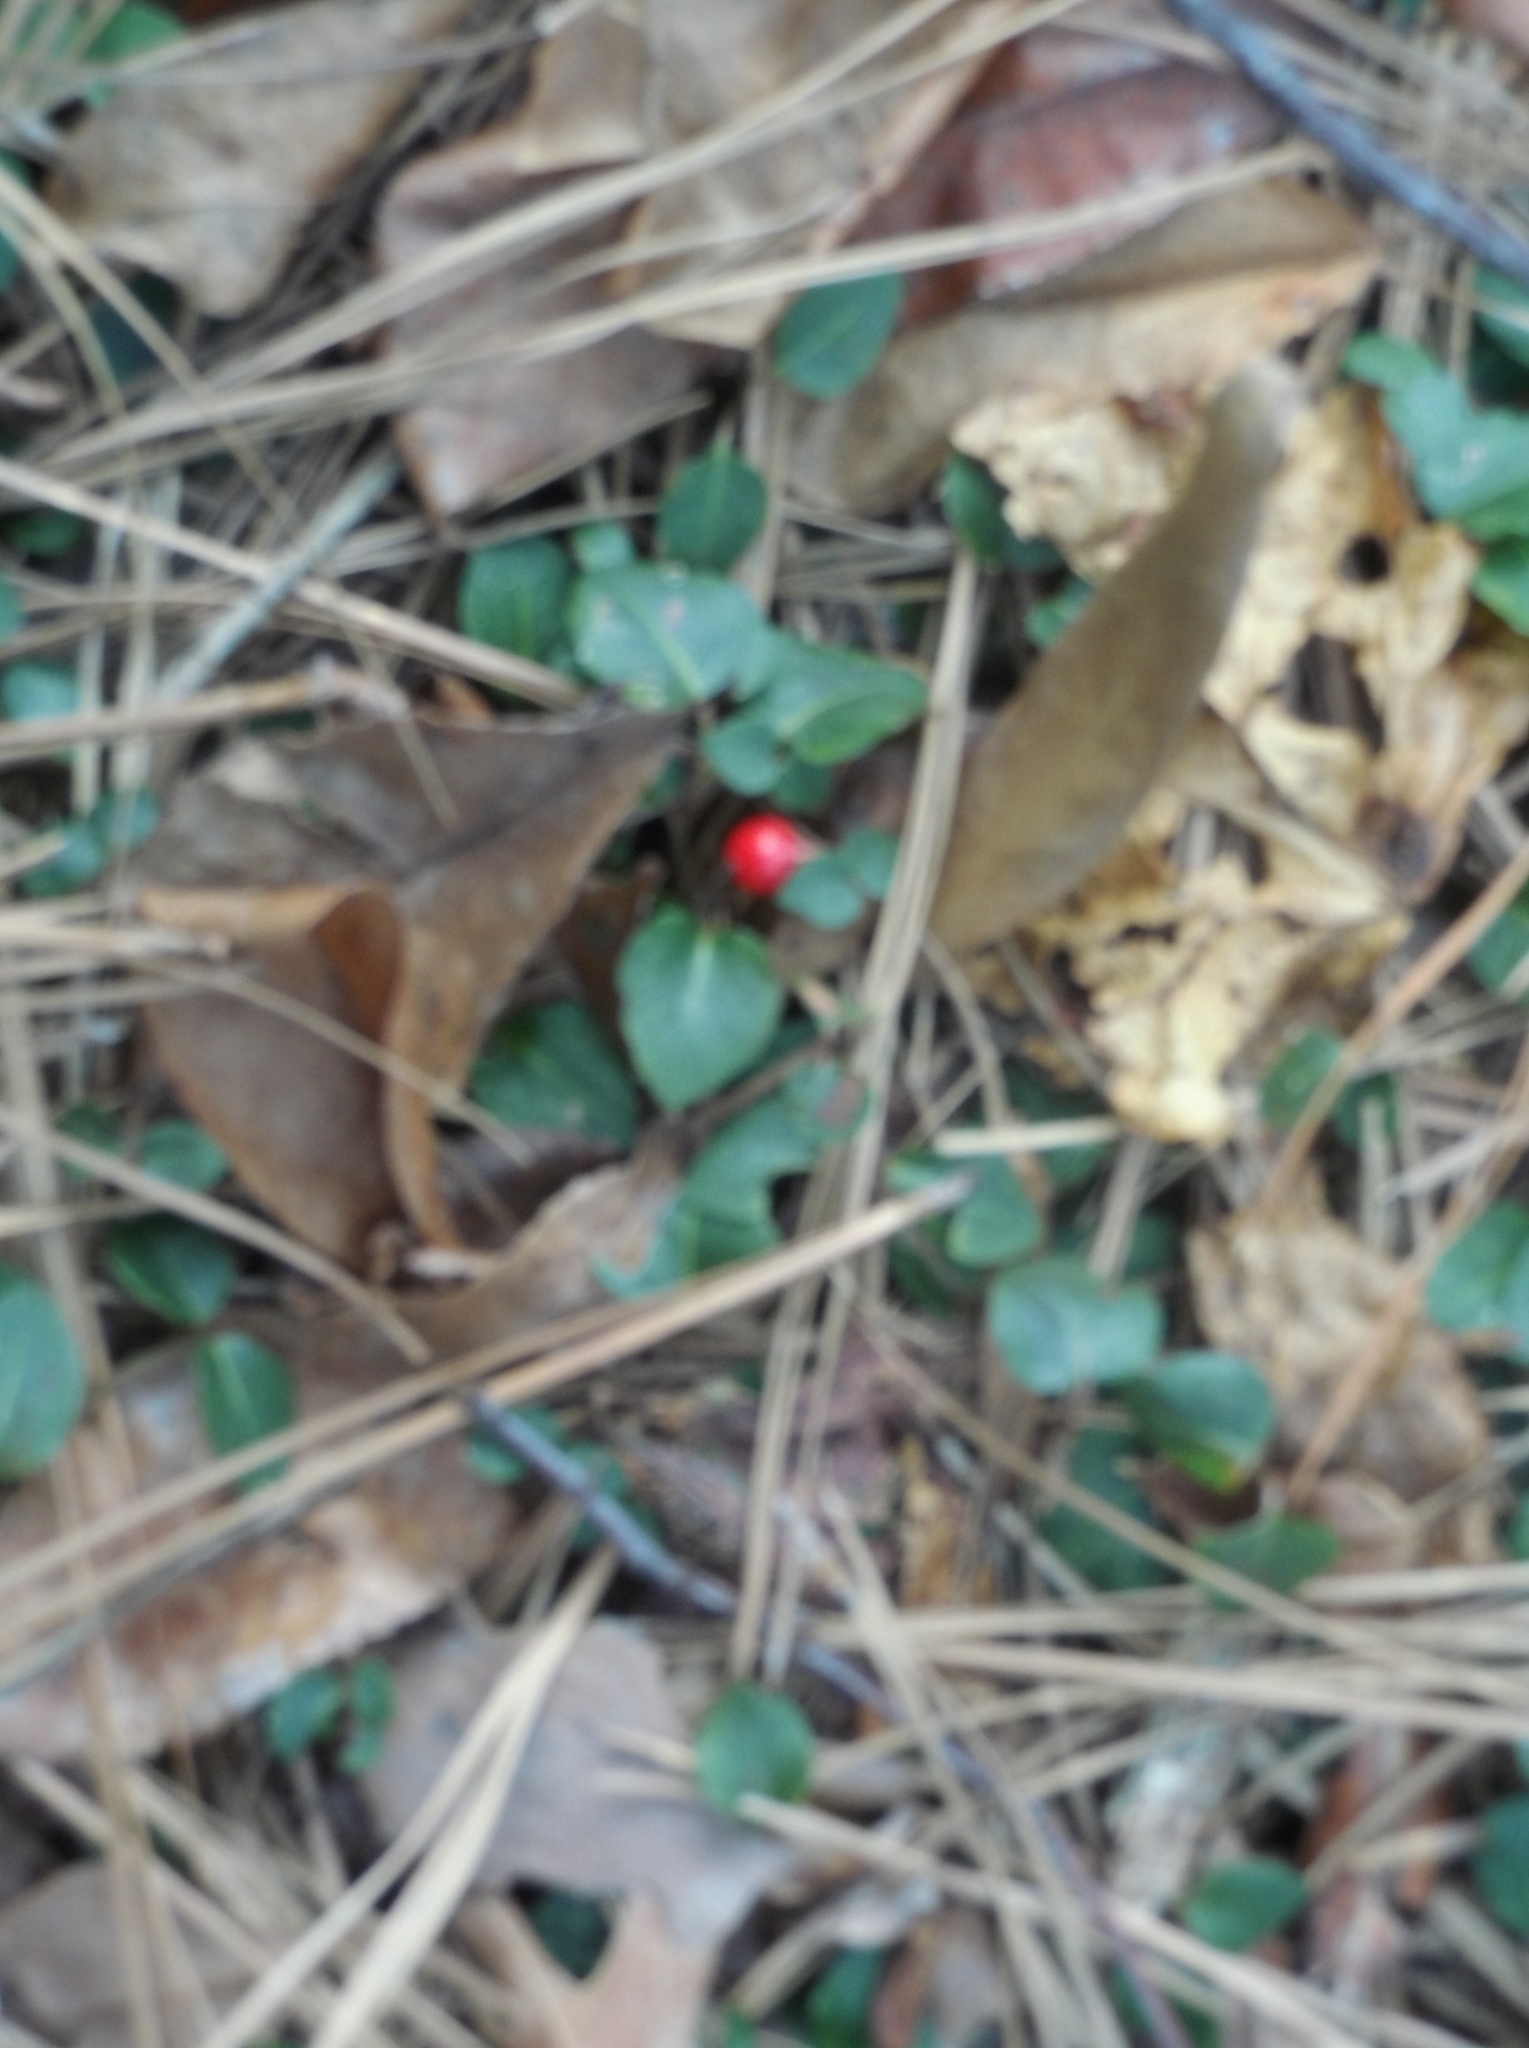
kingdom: Plantae
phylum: Tracheophyta
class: Magnoliopsida
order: Gentianales
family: Rubiaceae
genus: Mitchella
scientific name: Mitchella repens
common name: Partridge-berry
